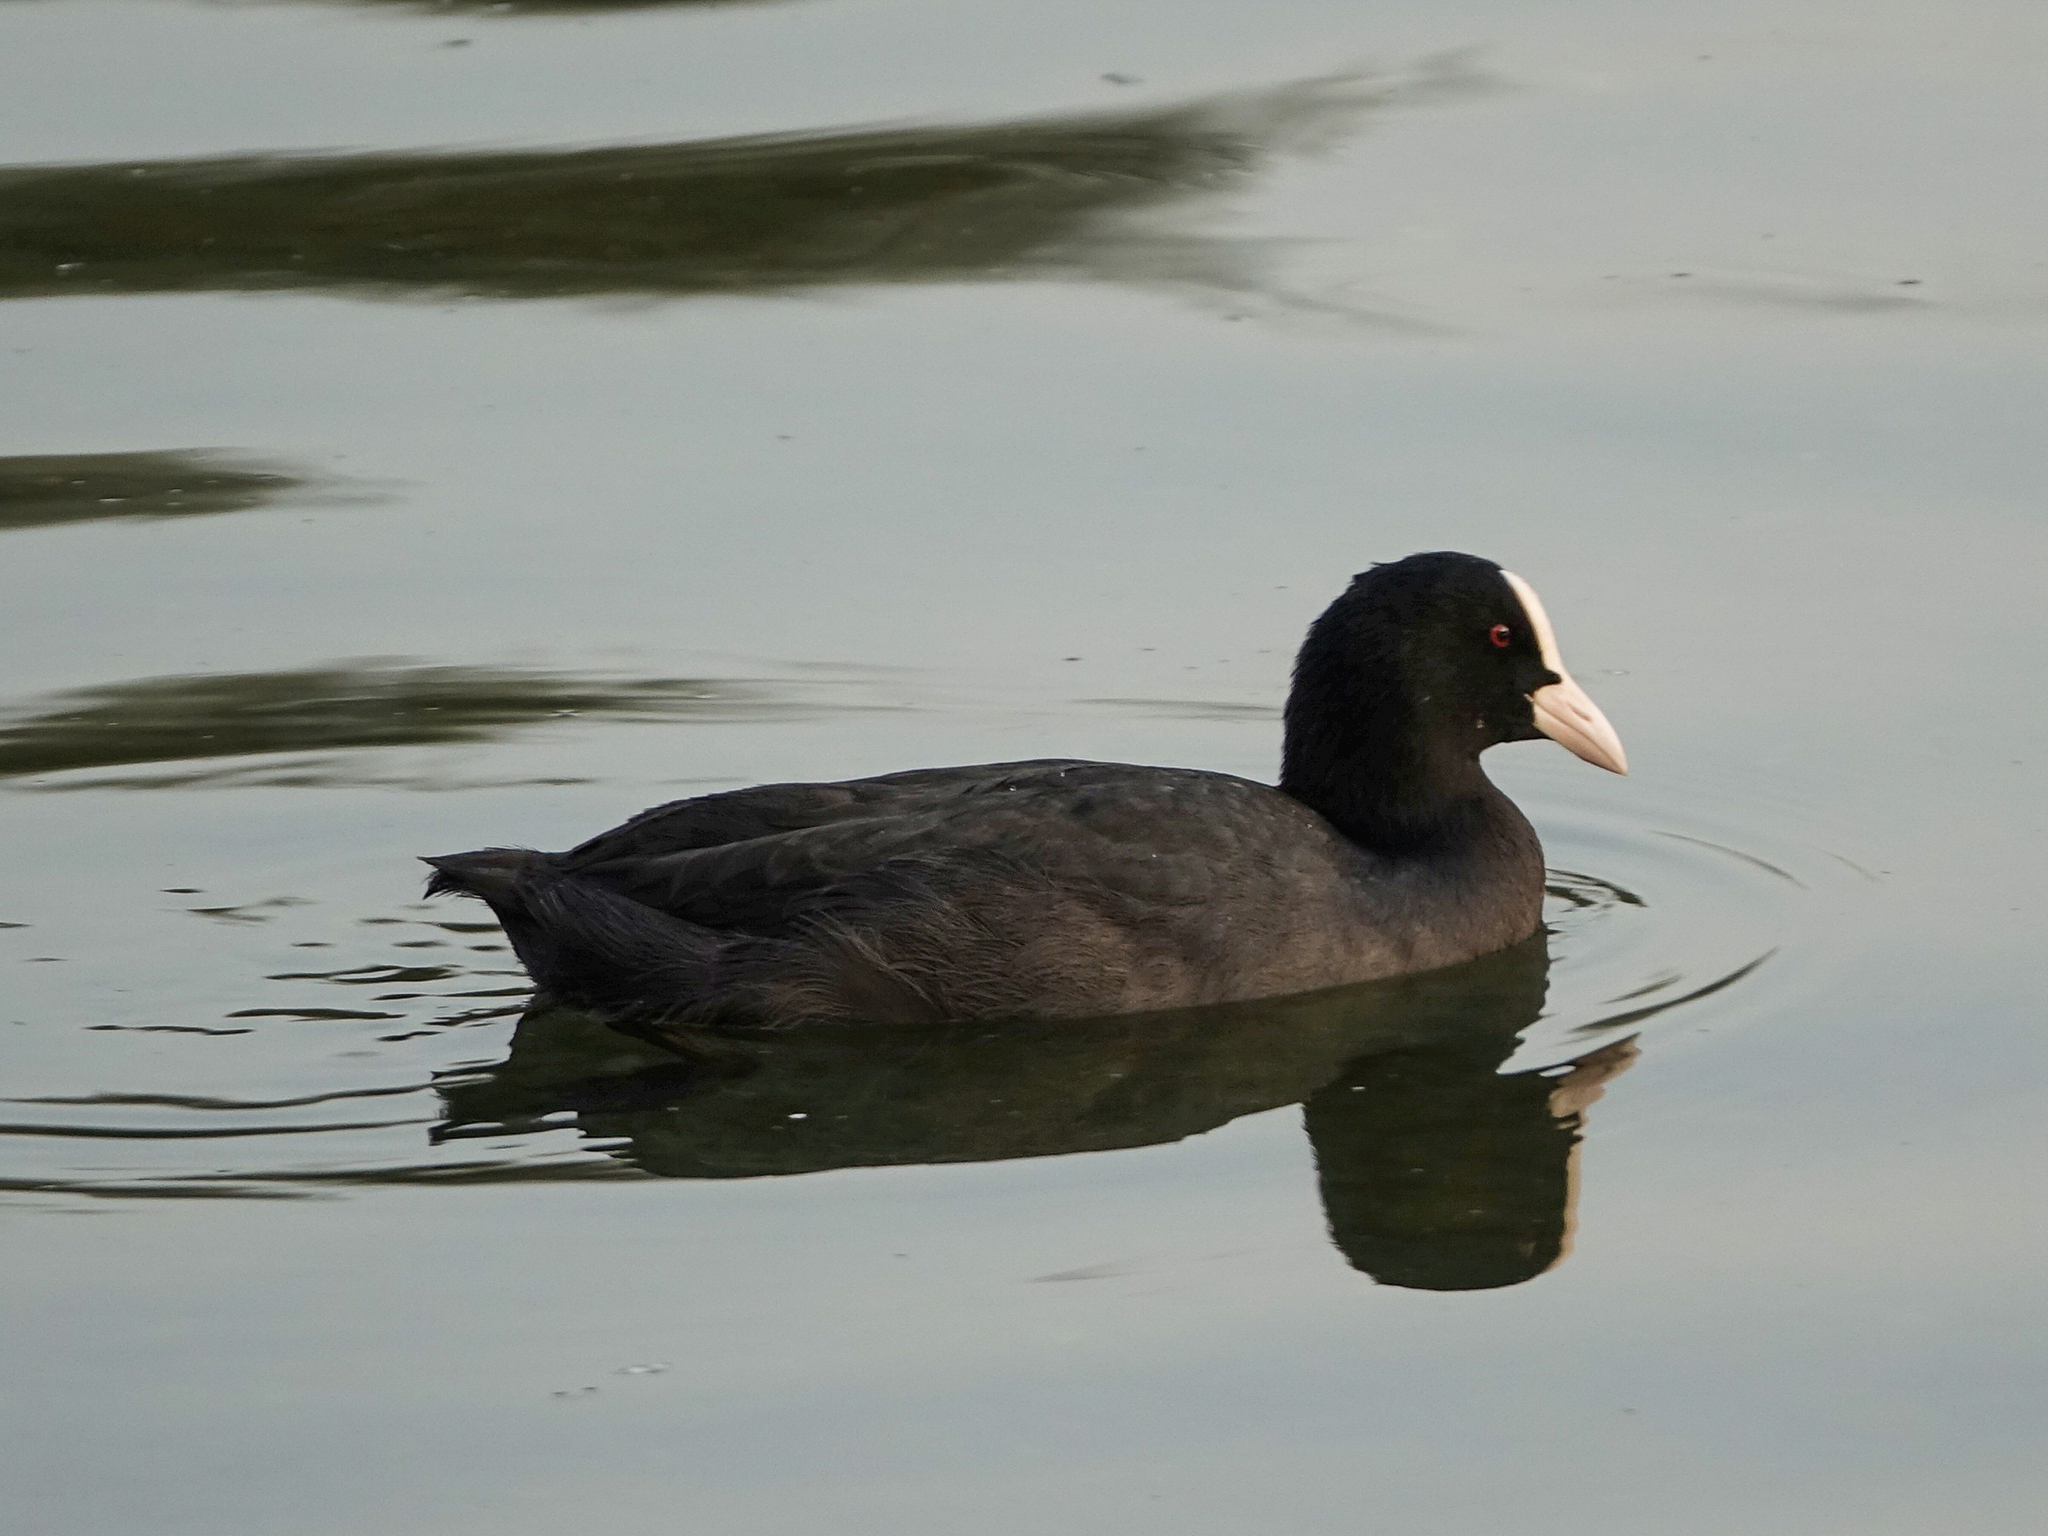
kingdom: Animalia
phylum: Chordata
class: Aves
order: Gruiformes
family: Rallidae
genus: Fulica
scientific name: Fulica atra
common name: Eurasian coot
